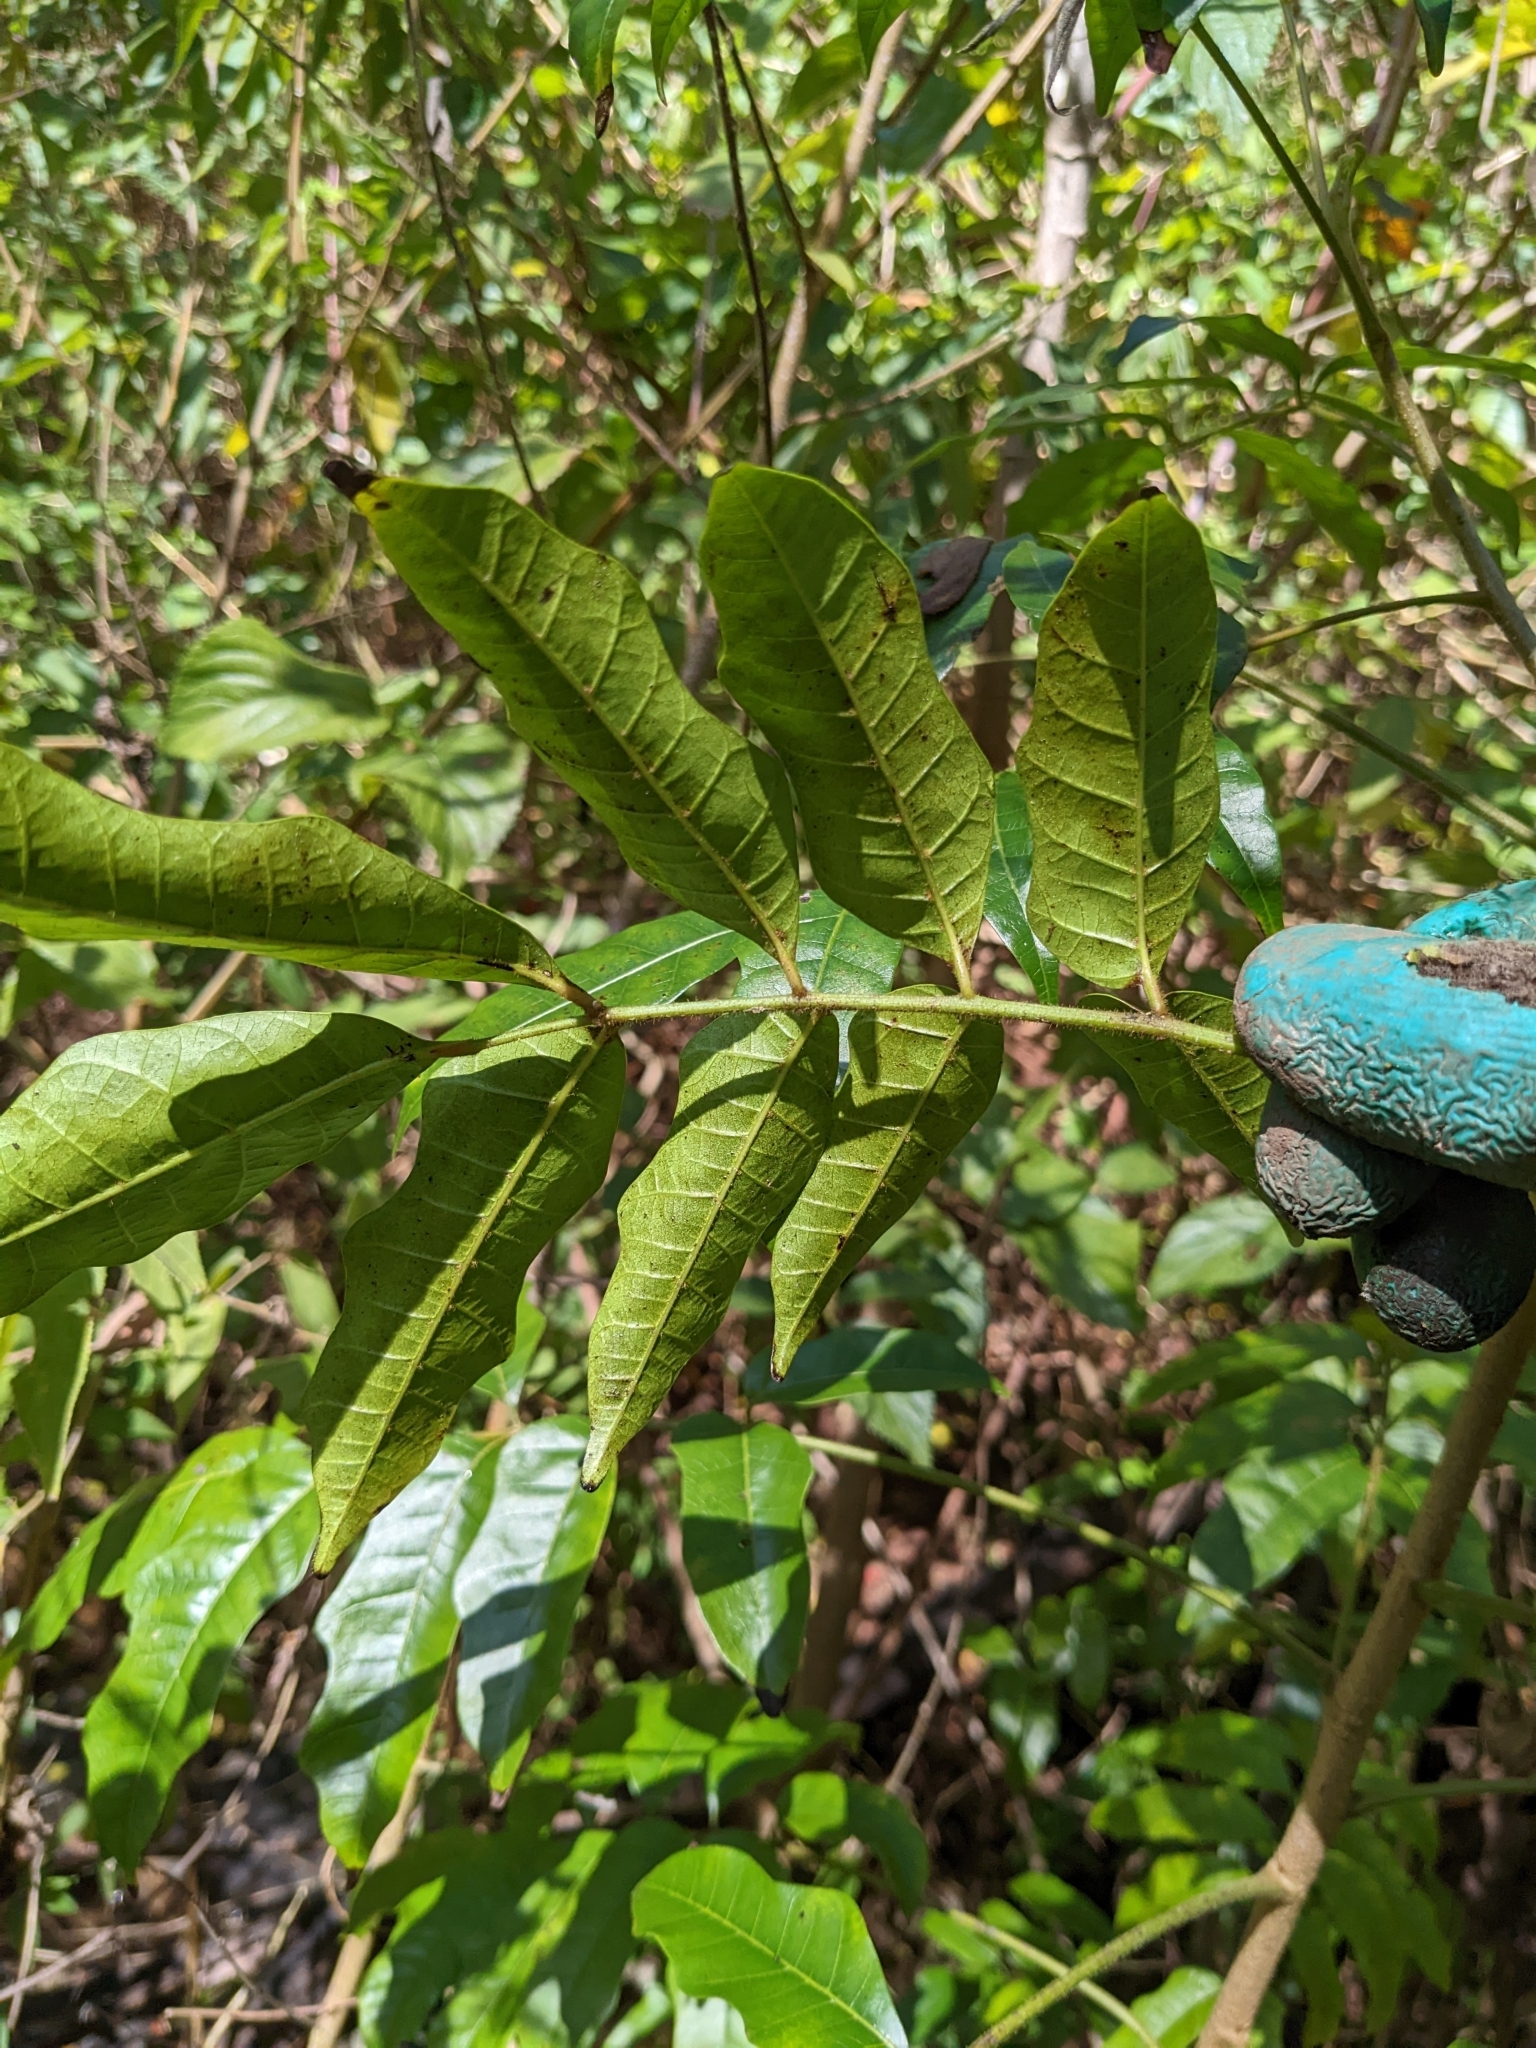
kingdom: Plantae
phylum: Tracheophyta
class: Magnoliopsida
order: Sapindales
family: Anacardiaceae
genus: Rhodosphaera
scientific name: Rhodosphaera rhodanthema
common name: Tulip satinwood
